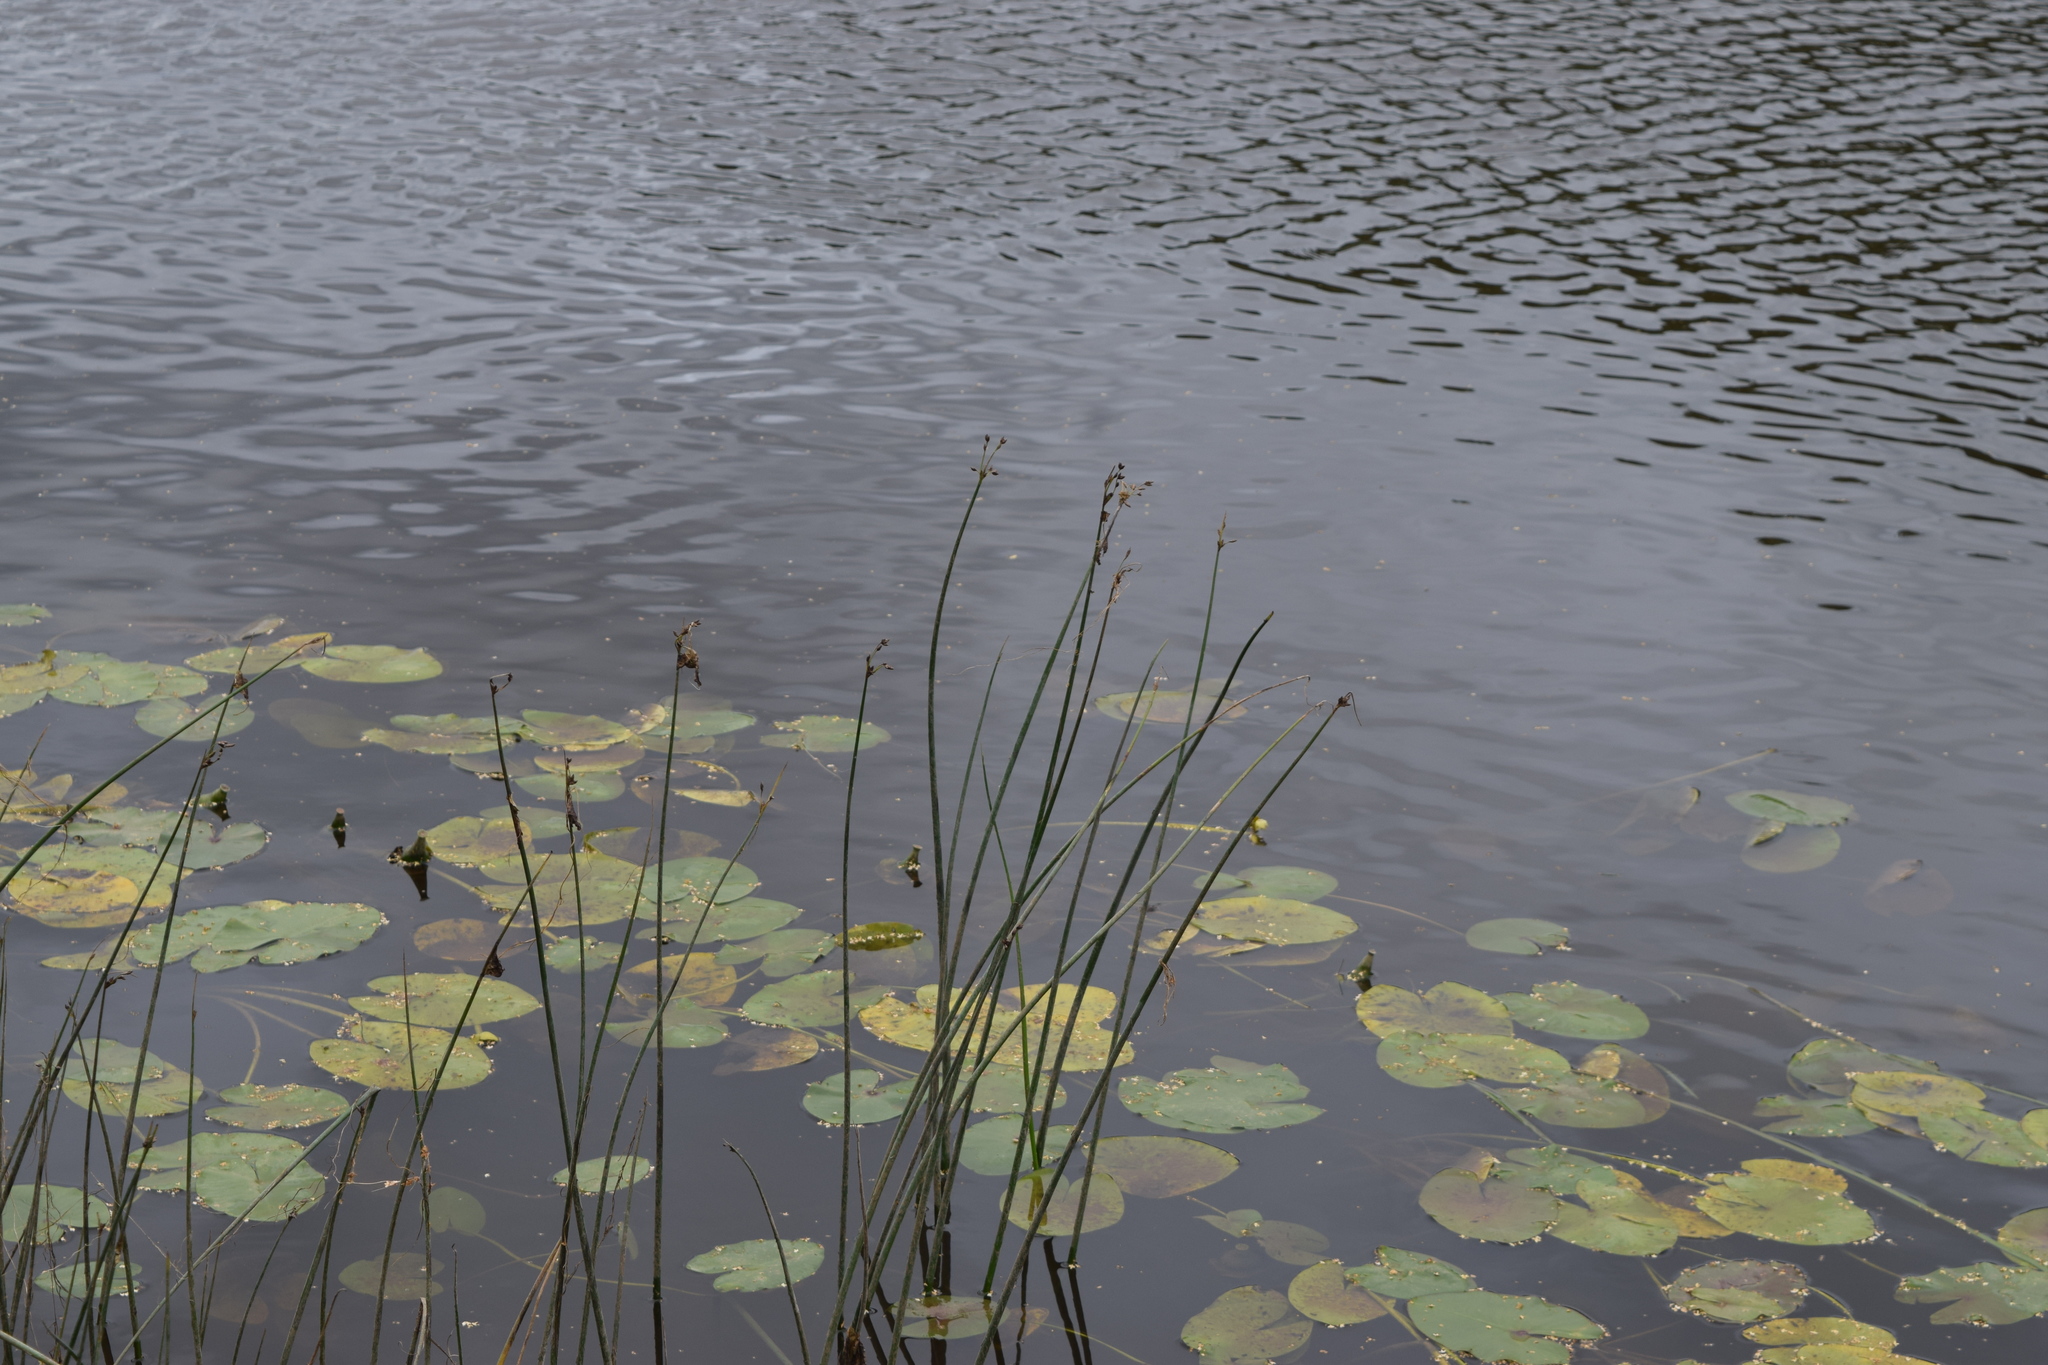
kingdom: Plantae
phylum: Tracheophyta
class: Liliopsida
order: Poales
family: Cyperaceae
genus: Schoenoplectus
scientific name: Schoenoplectus lacustris
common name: Common club-rush
